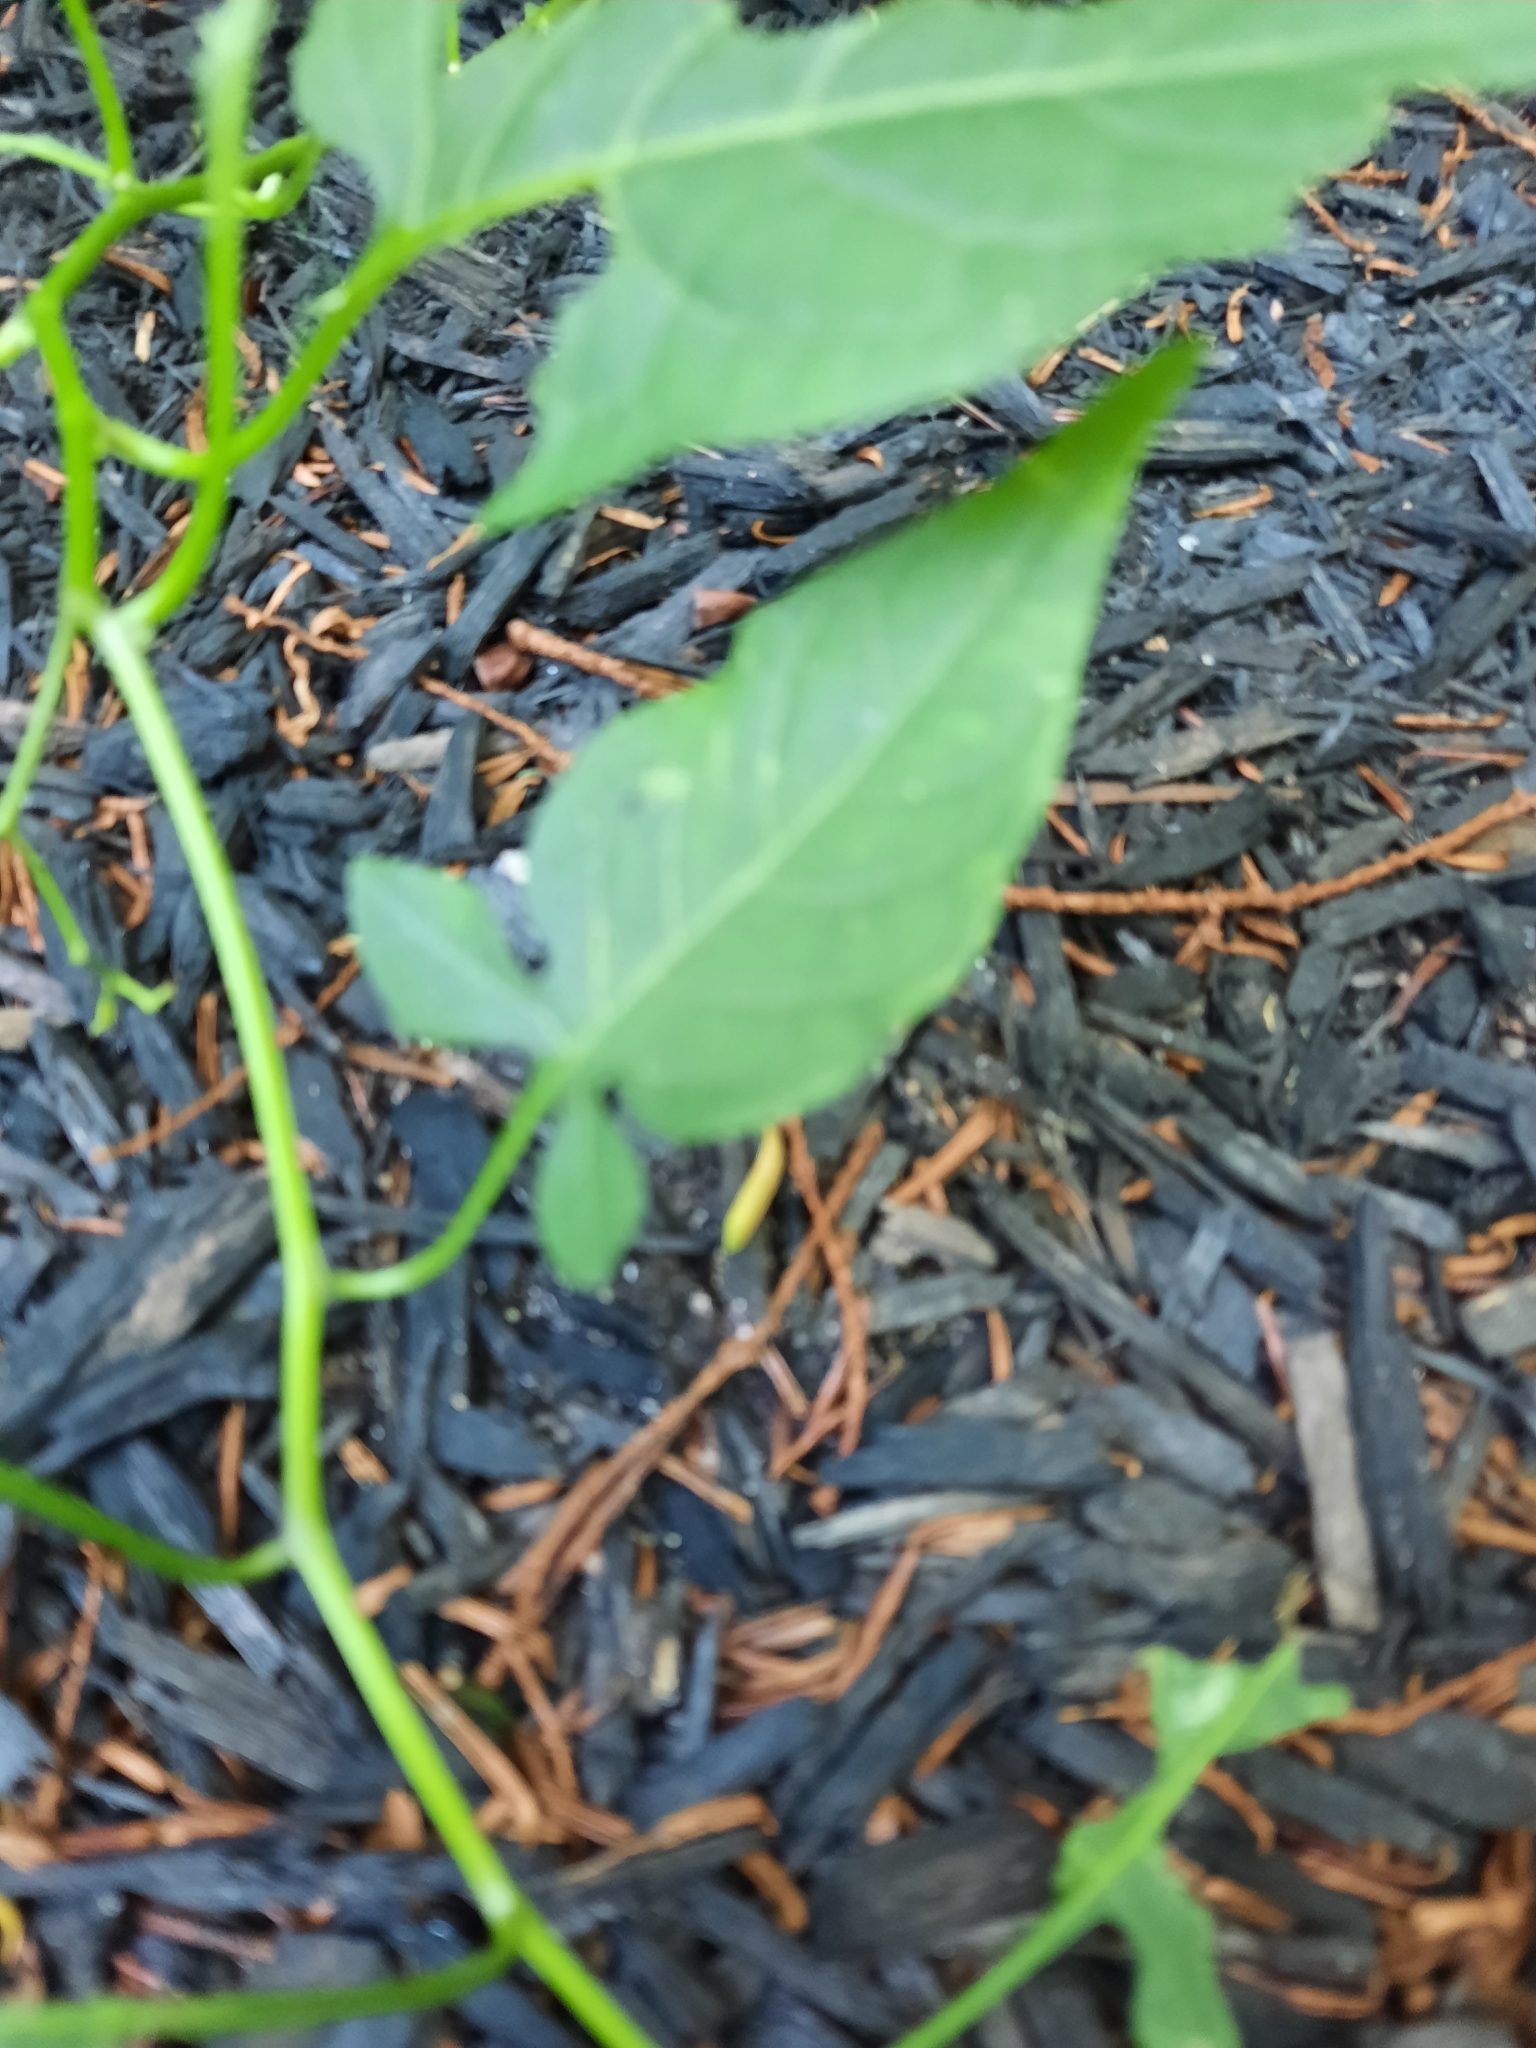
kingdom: Plantae
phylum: Tracheophyta
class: Magnoliopsida
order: Solanales
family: Solanaceae
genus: Solanum
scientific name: Solanum dulcamara
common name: Climbing nightshade
